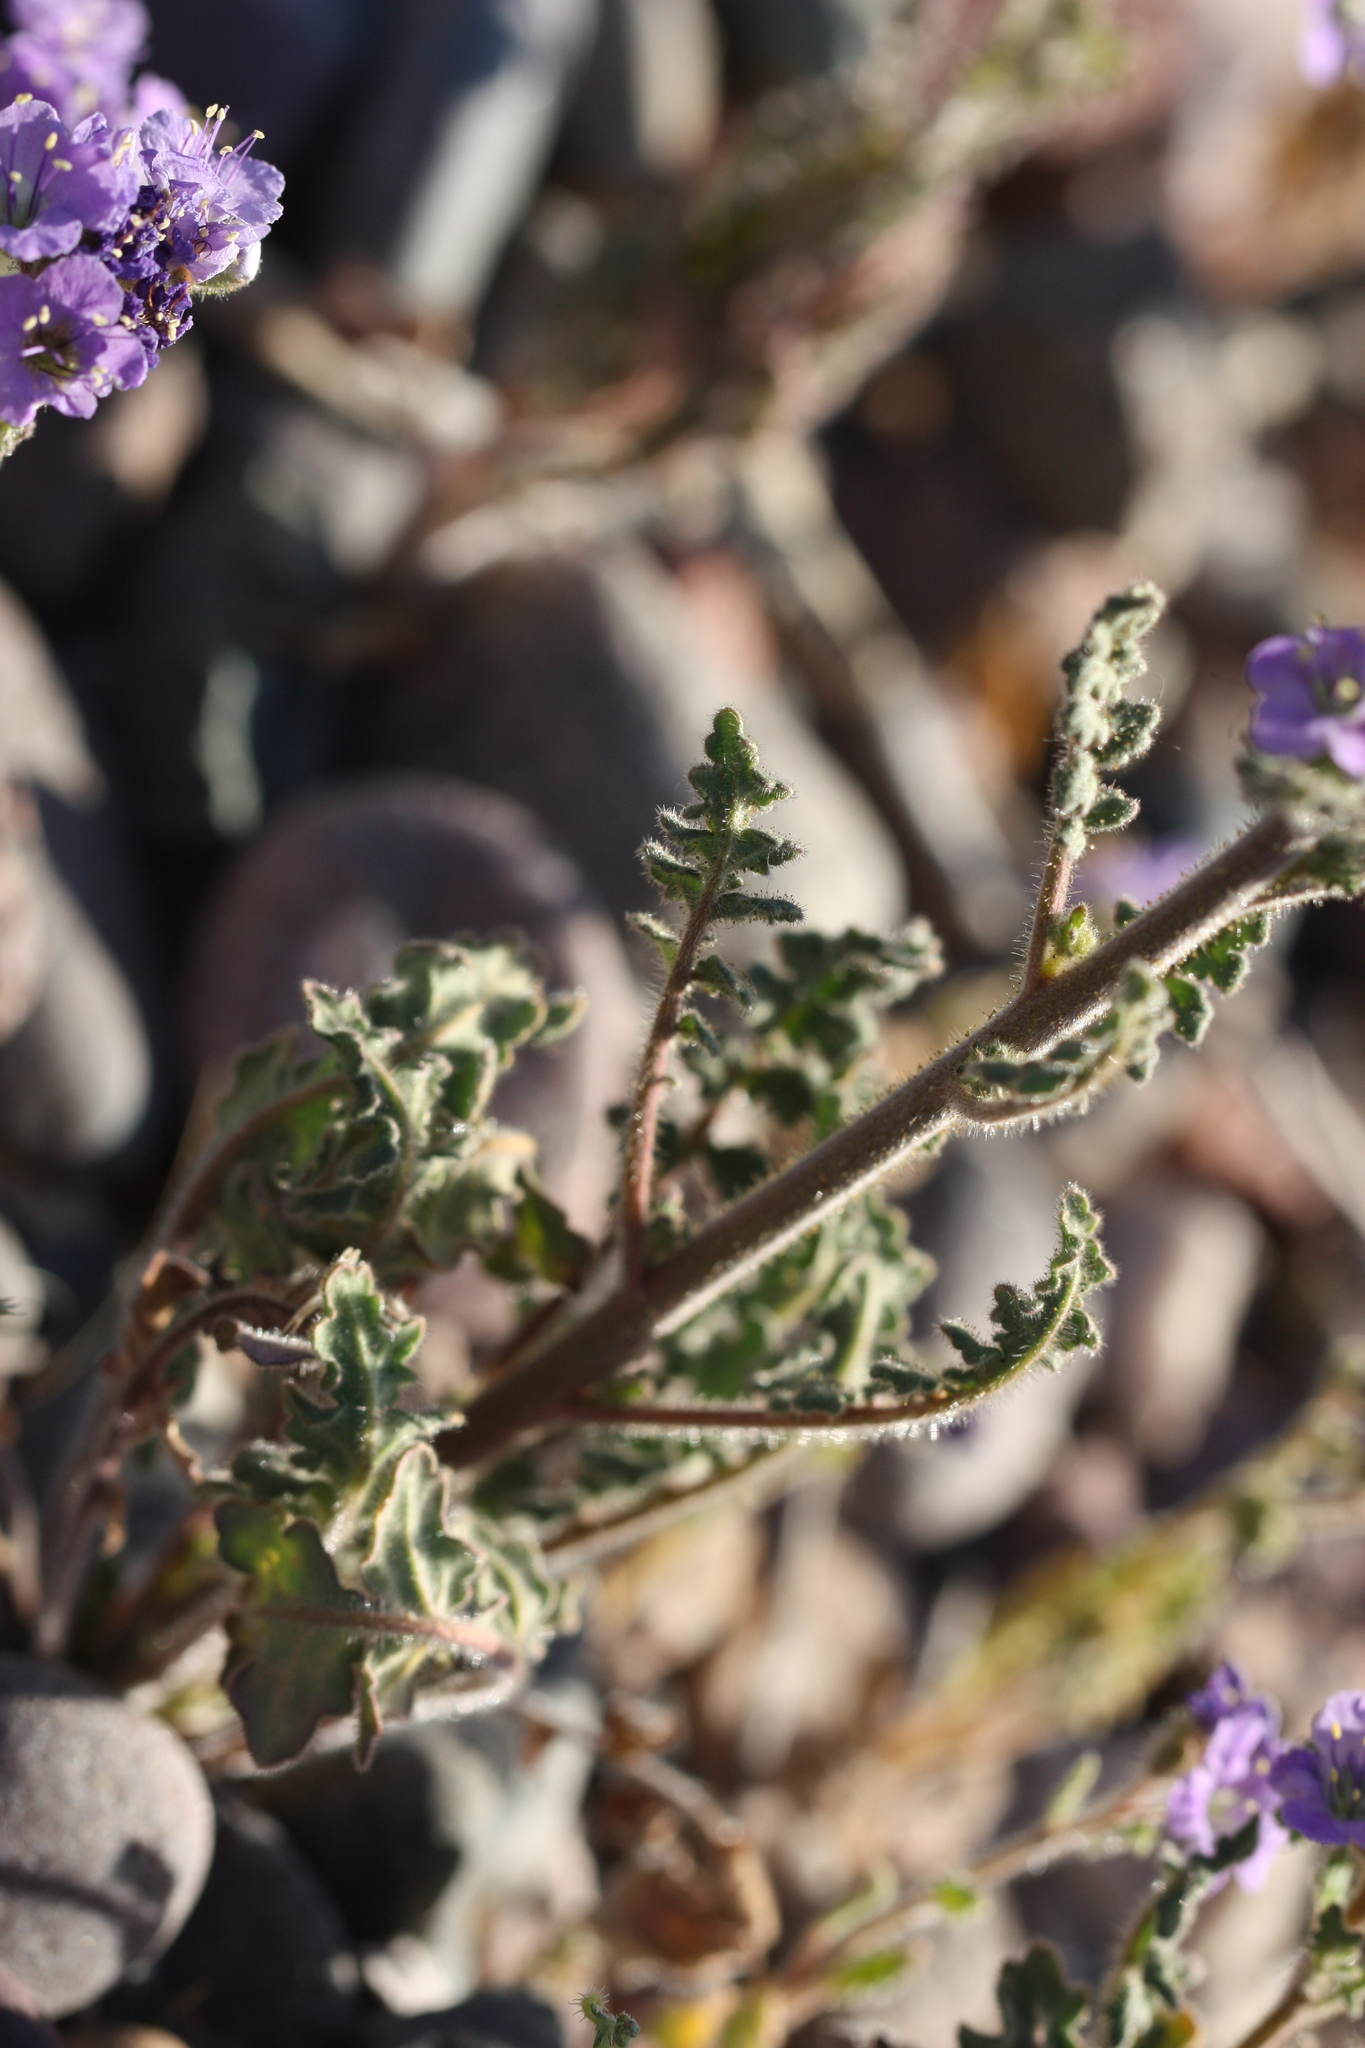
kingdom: Plantae
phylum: Tracheophyta
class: Magnoliopsida
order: Boraginales
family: Hydrophyllaceae
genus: Phacelia
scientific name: Phacelia crenulata
